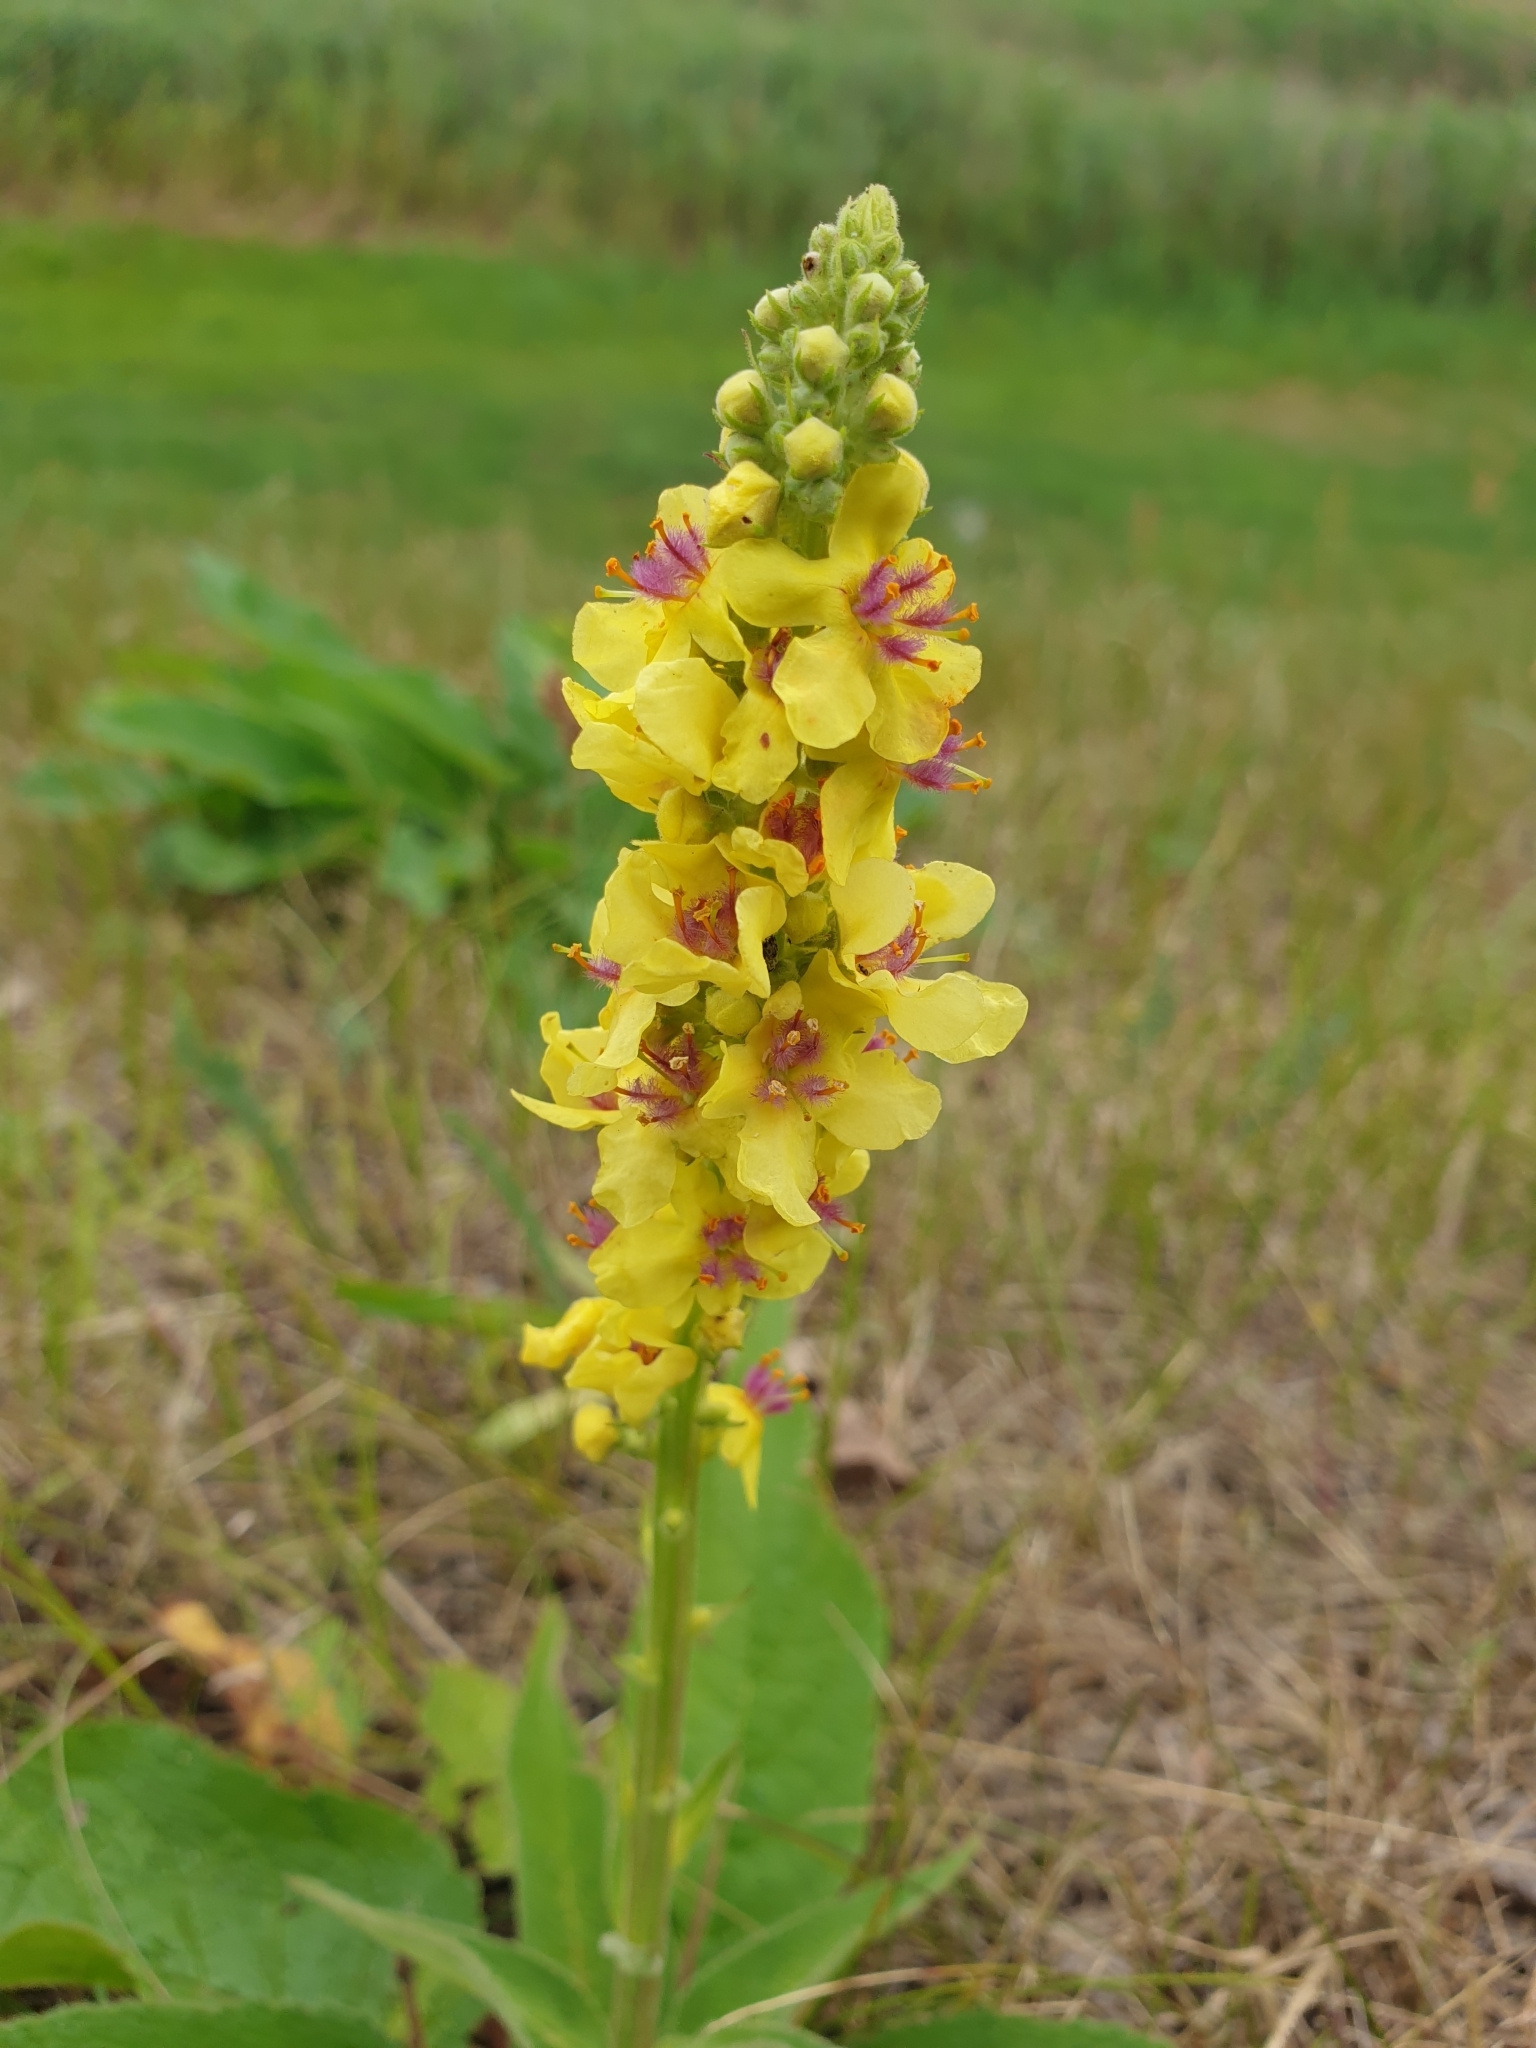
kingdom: Plantae
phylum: Tracheophyta
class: Magnoliopsida
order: Lamiales
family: Scrophulariaceae
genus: Verbascum
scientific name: Verbascum nigrum
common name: Dark mullein
